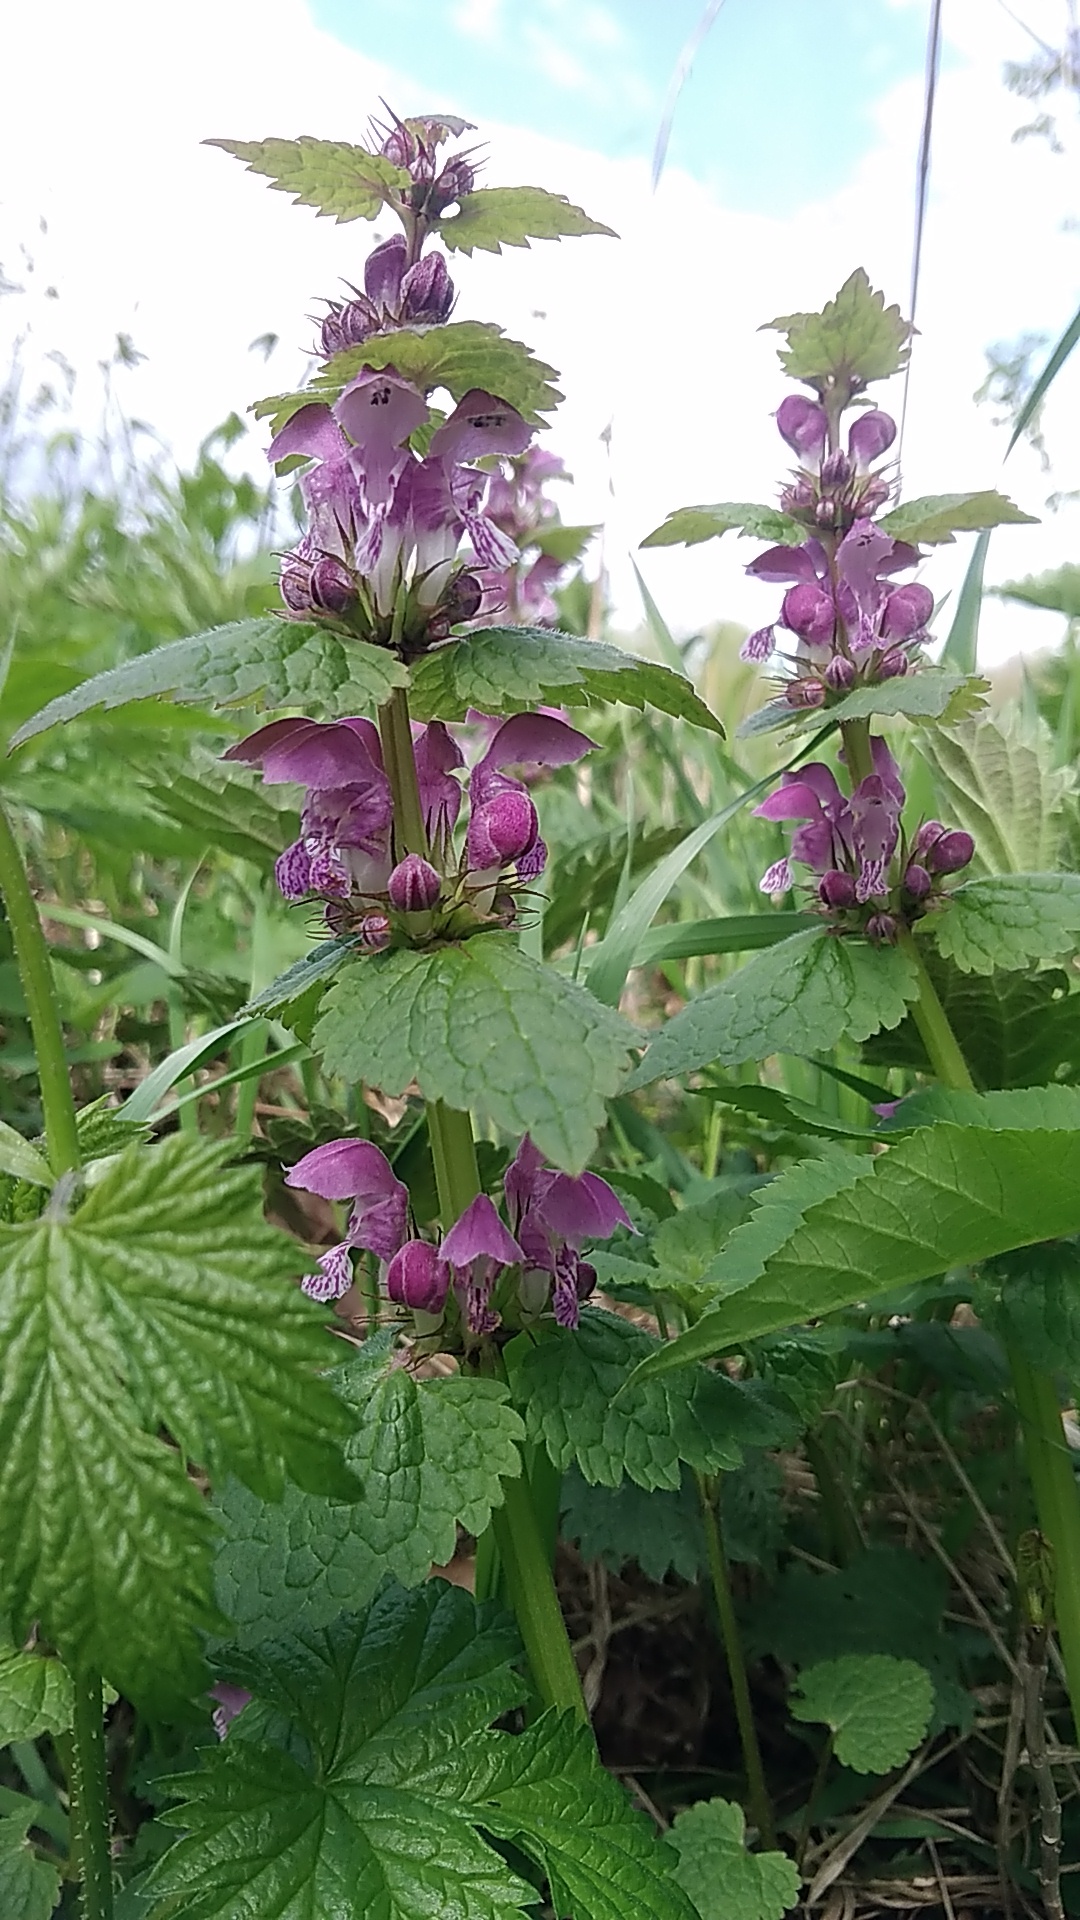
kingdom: Plantae
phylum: Tracheophyta
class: Magnoliopsida
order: Lamiales
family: Lamiaceae
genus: Lamium
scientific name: Lamium maculatum
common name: Spotted dead-nettle
